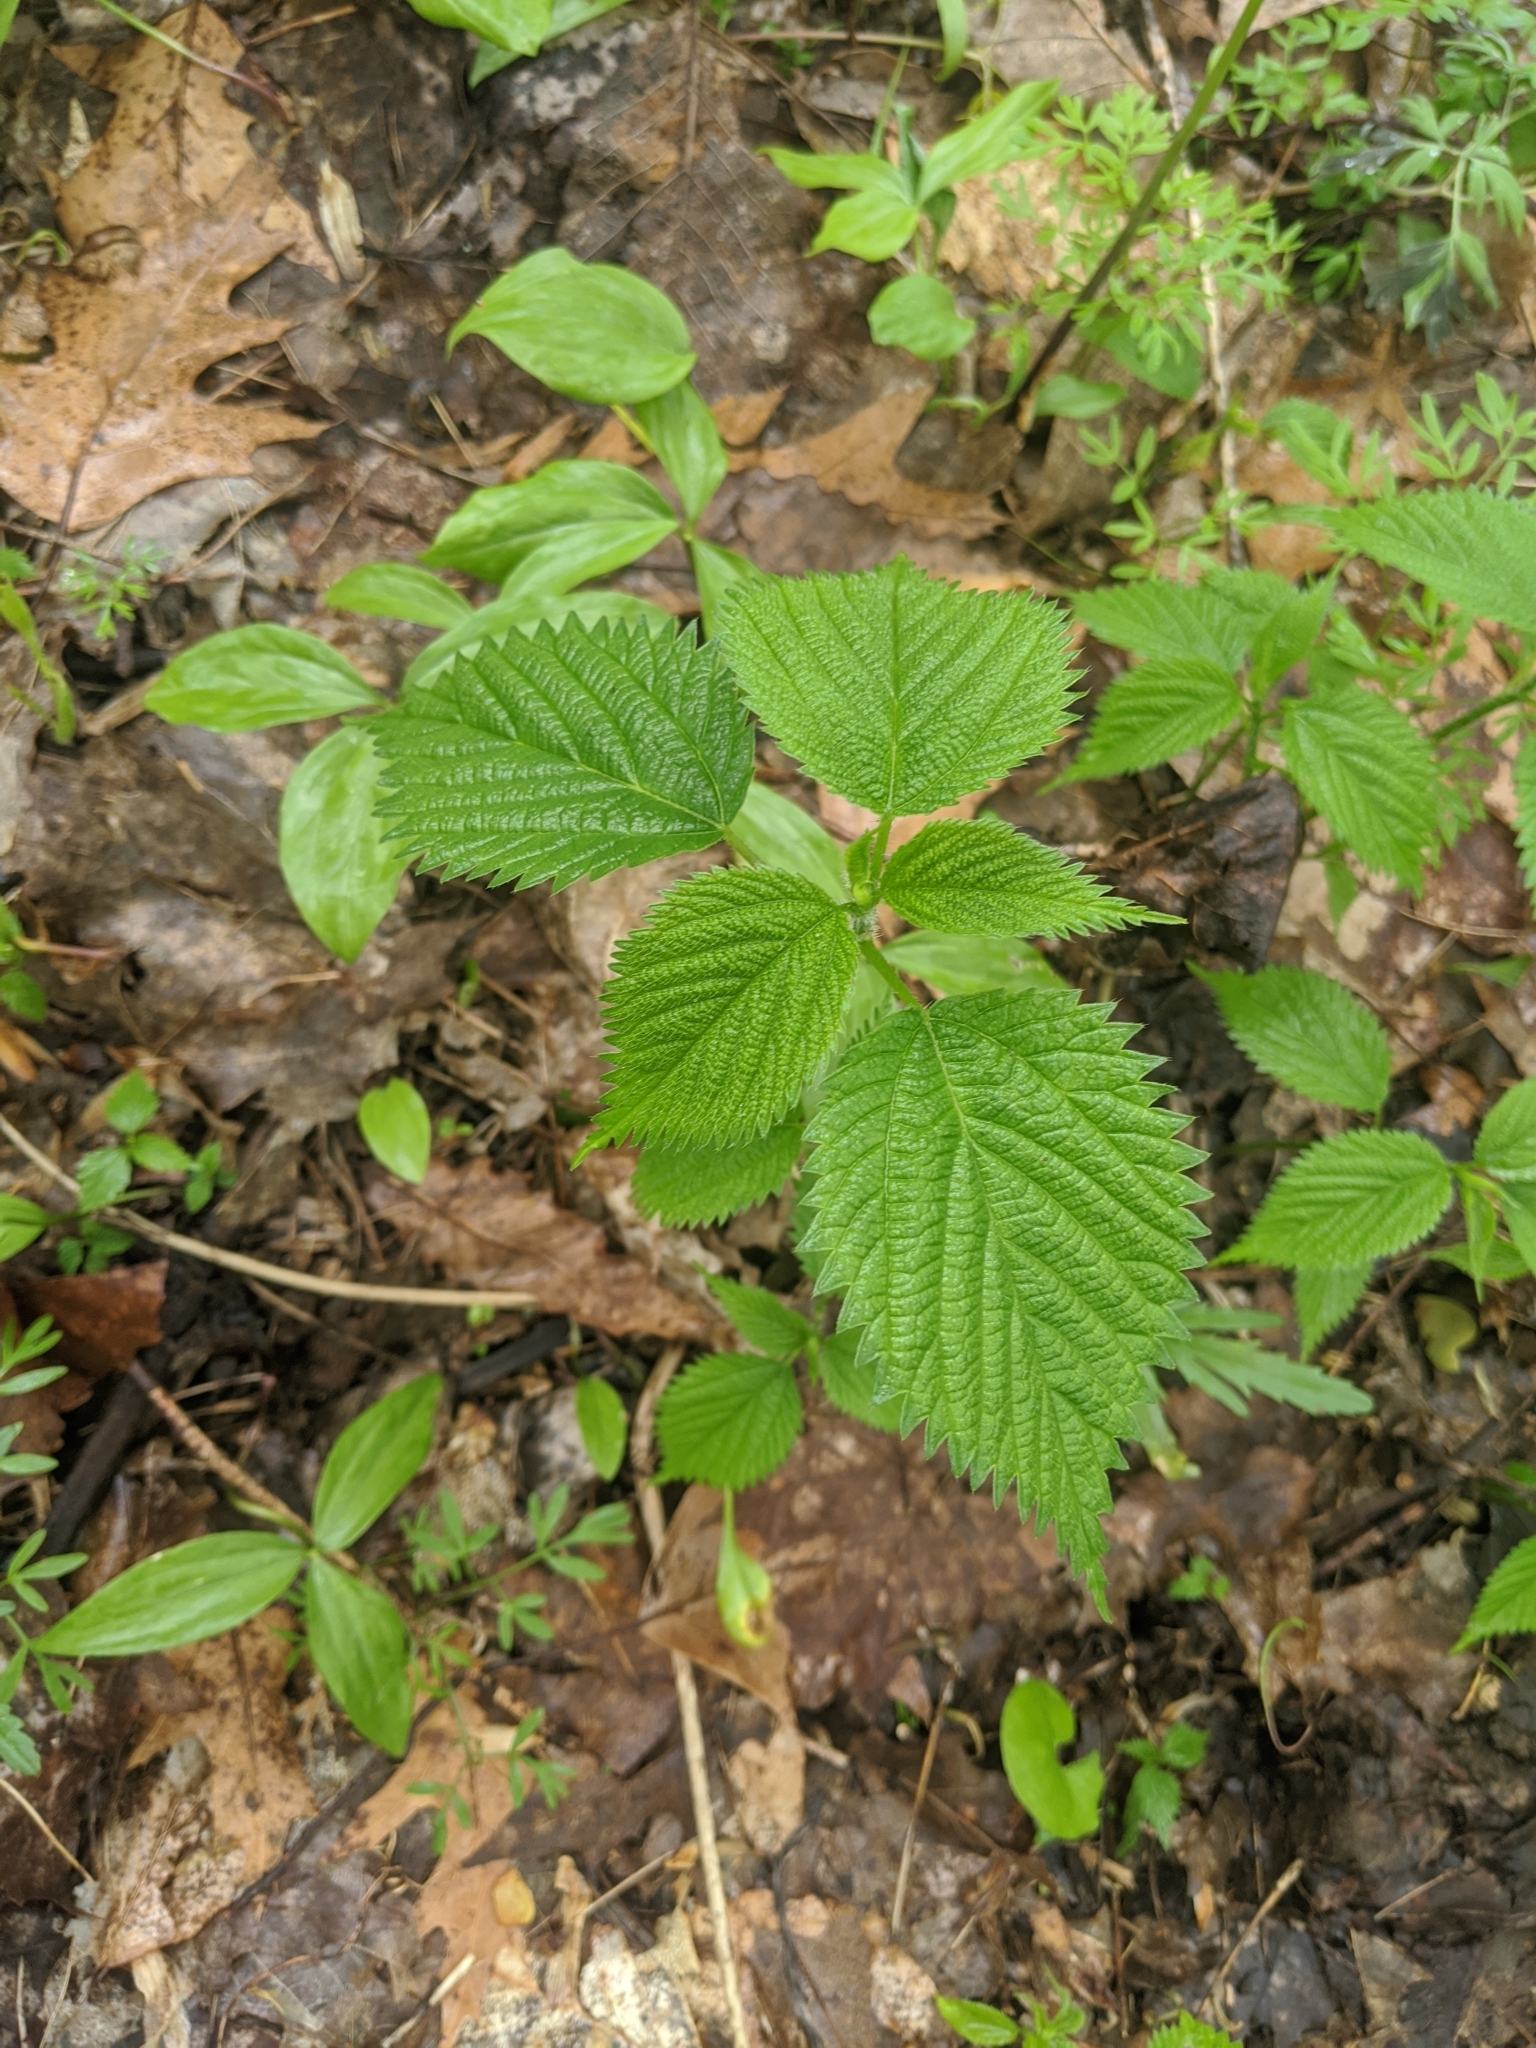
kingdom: Plantae
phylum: Tracheophyta
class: Magnoliopsida
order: Rosales
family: Urticaceae
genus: Laportea
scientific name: Laportea canadensis
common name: Canada nettle
